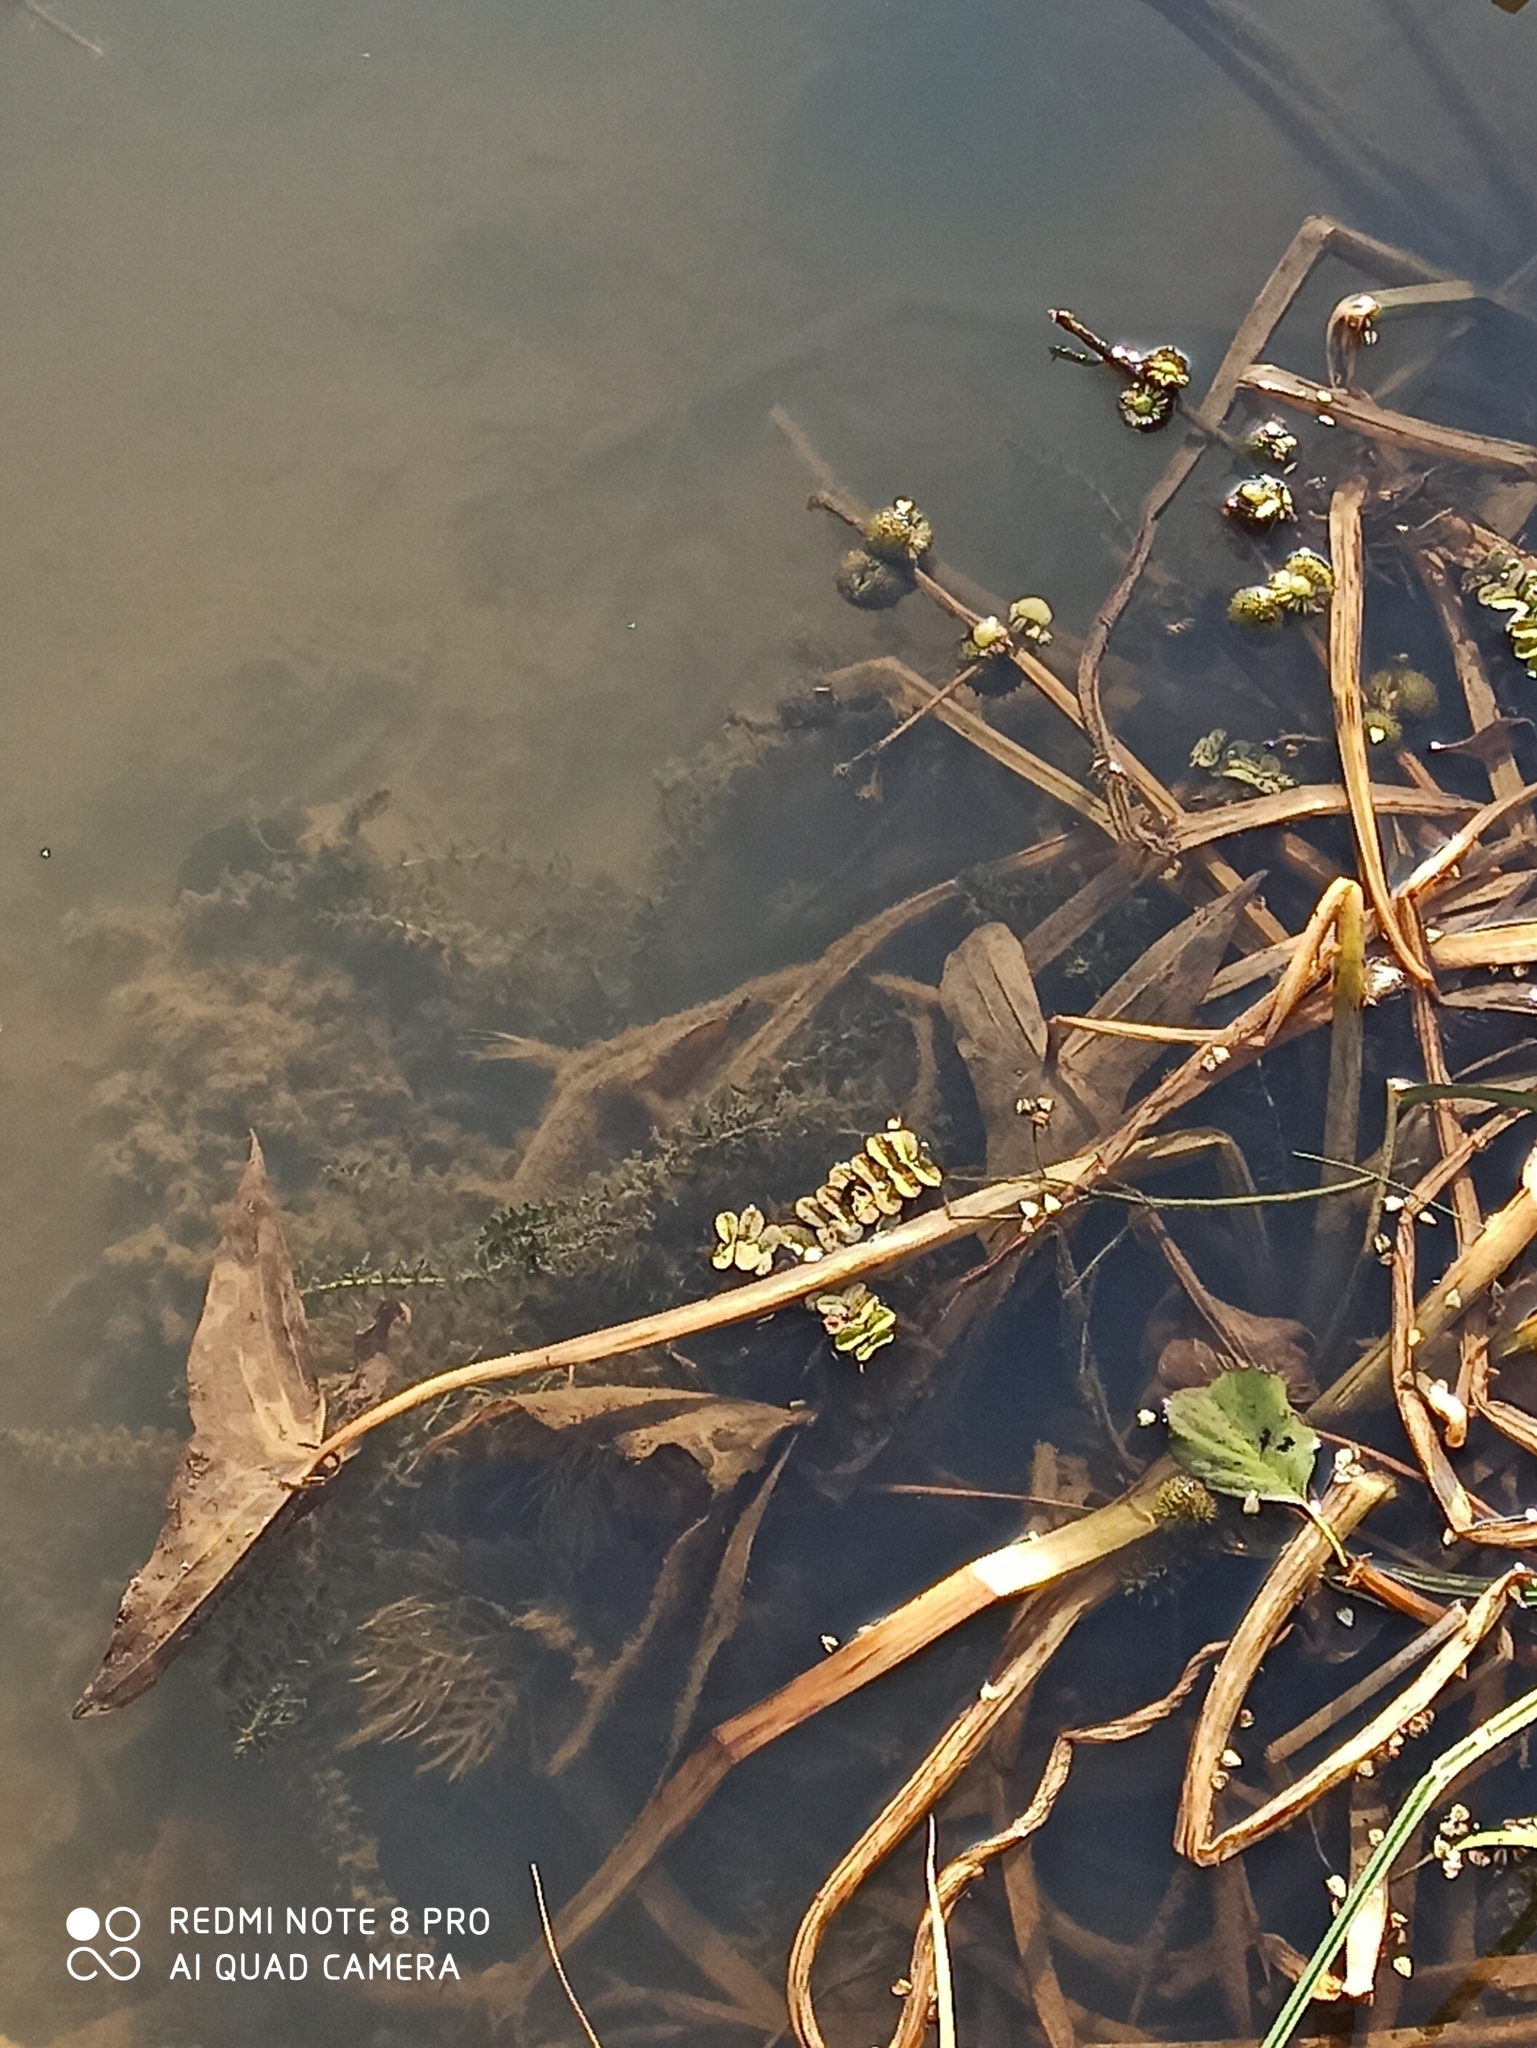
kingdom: Plantae
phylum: Tracheophyta
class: Liliopsida
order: Alismatales
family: Alismataceae
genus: Sagittaria
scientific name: Sagittaria sagittifolia
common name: Arrowhead
